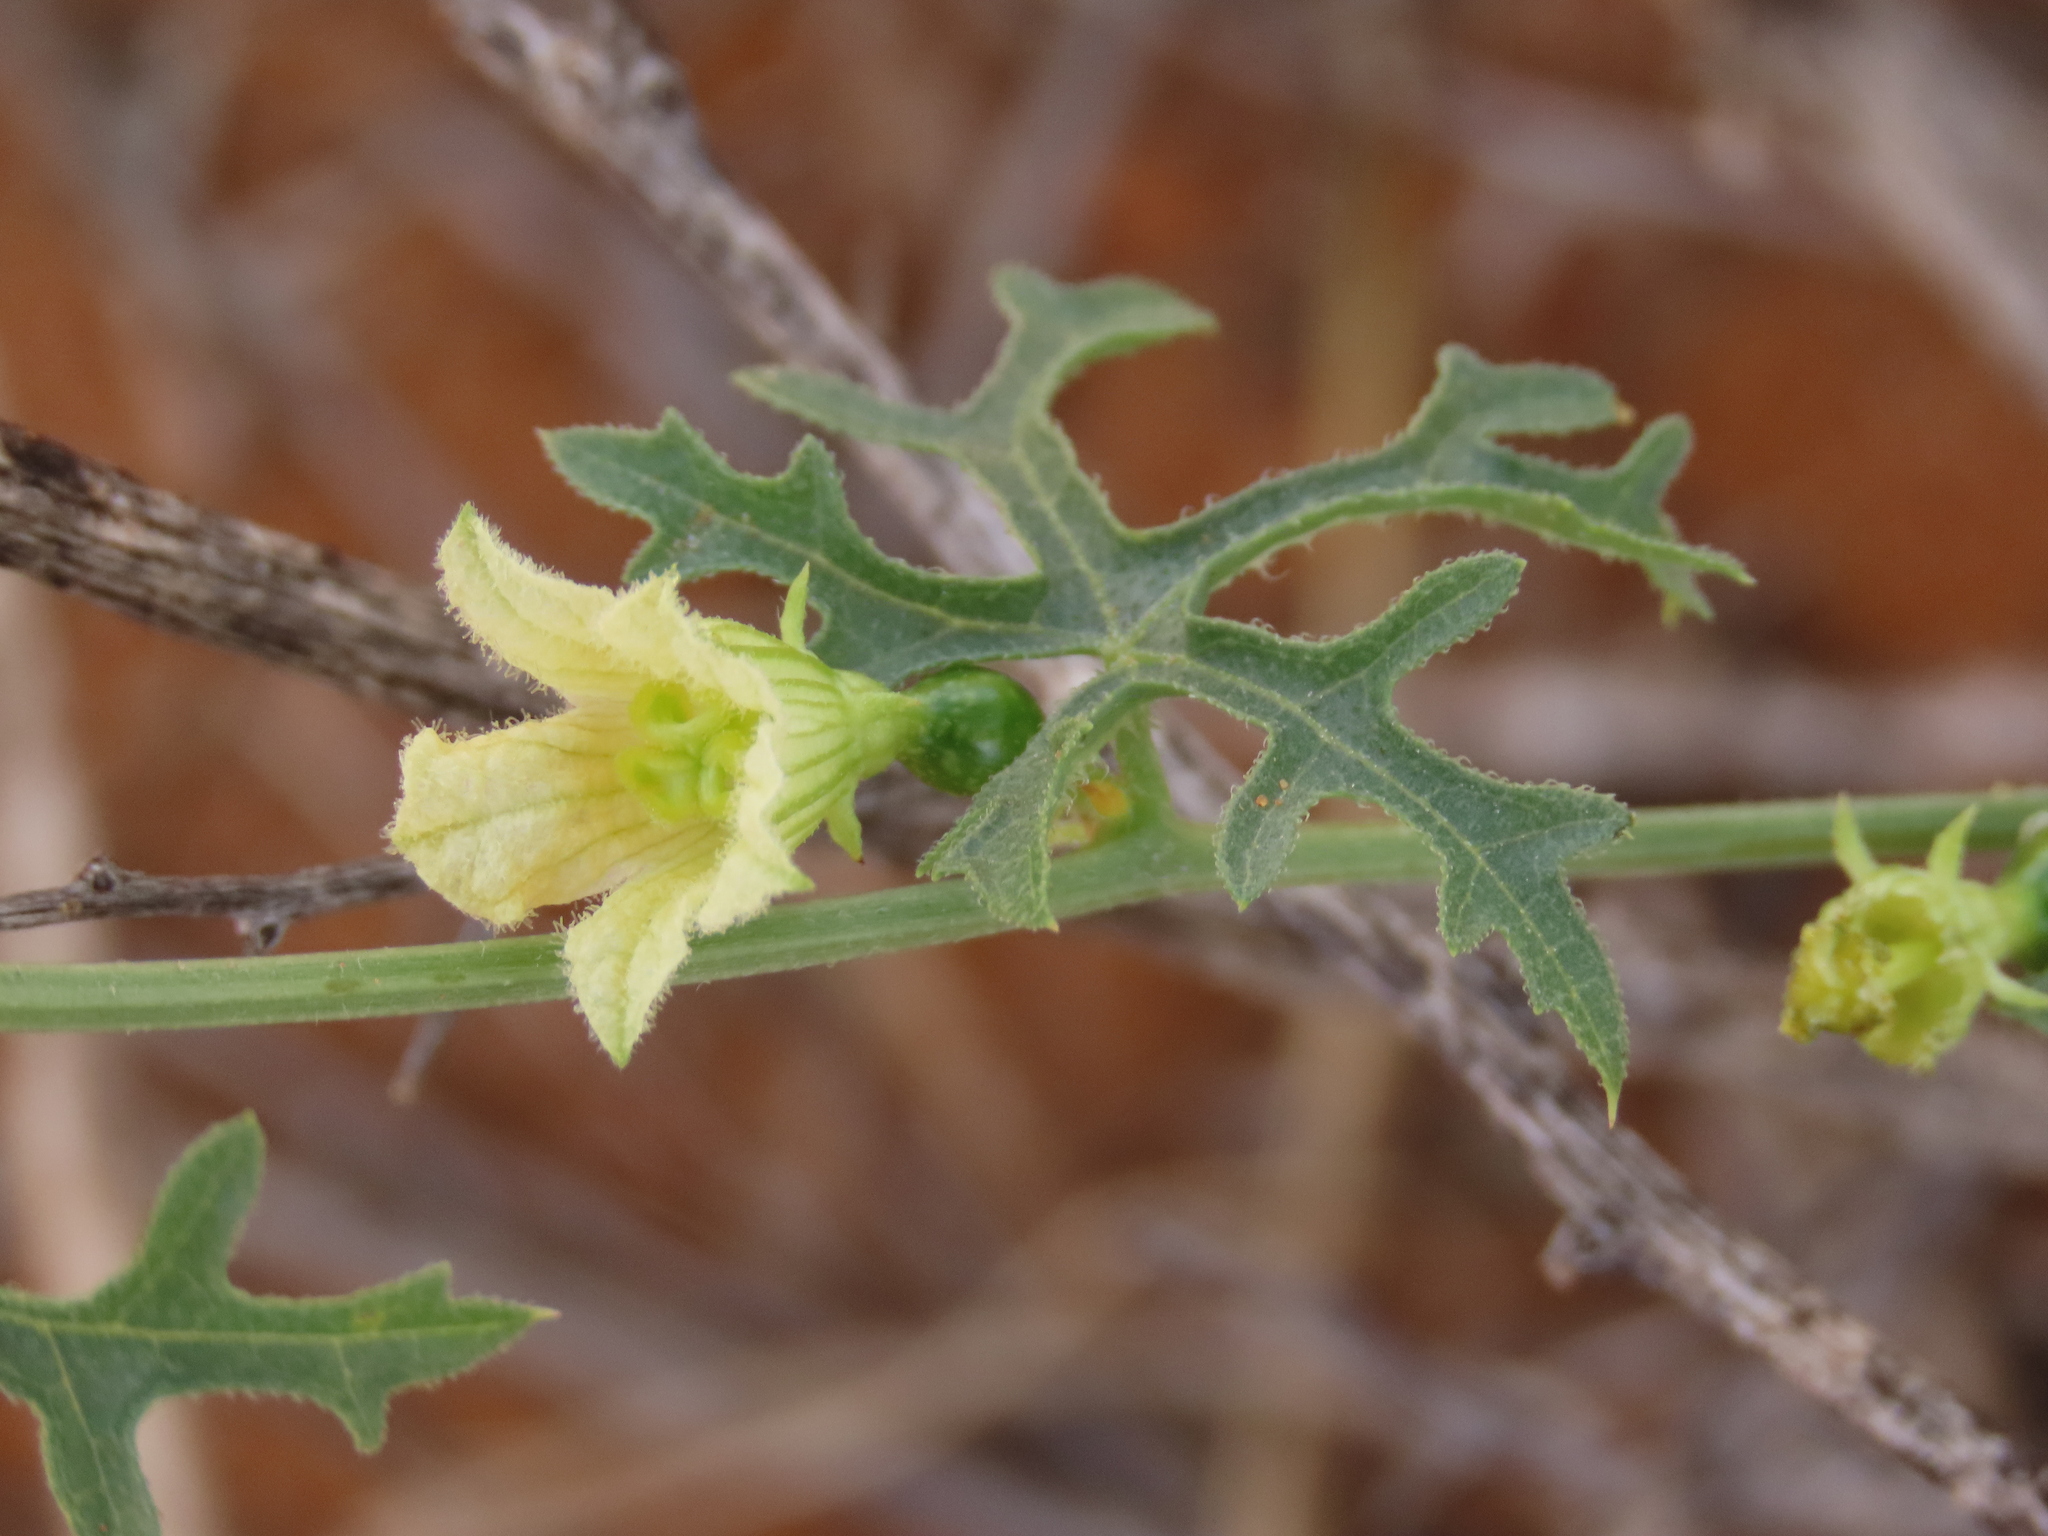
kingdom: Plantae
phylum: Tracheophyta
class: Magnoliopsida
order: Cucurbitales
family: Cucurbitaceae
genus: Coccinia
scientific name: Coccinia rehmannii
